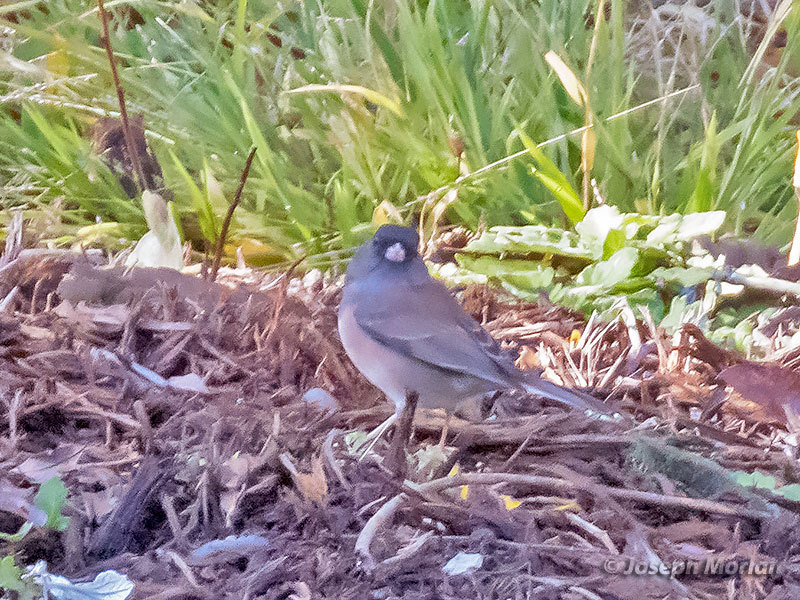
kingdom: Animalia
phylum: Chordata
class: Aves
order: Passeriformes
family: Passerellidae
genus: Junco
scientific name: Junco hyemalis
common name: Dark-eyed junco
